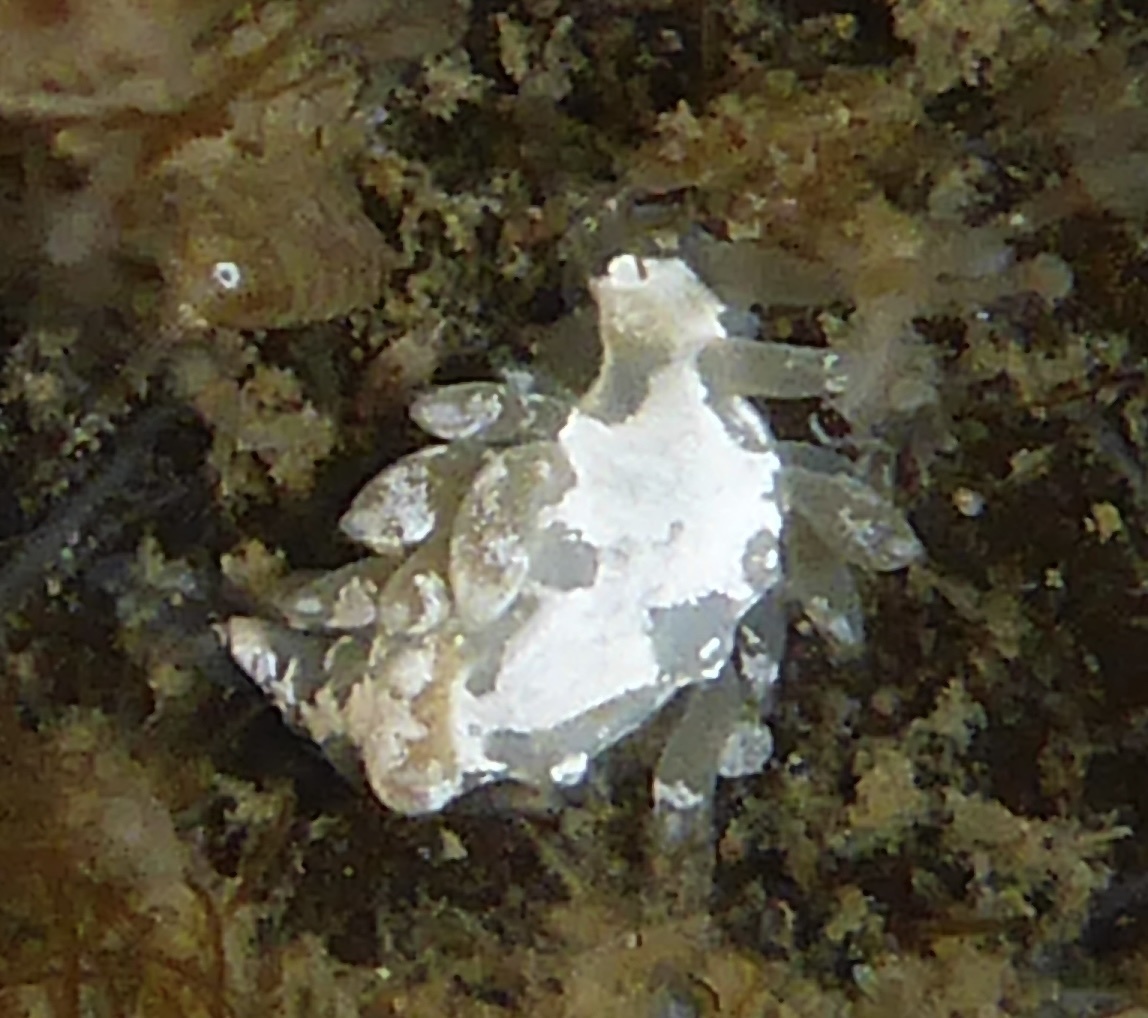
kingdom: Animalia
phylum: Mollusca
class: Gastropoda
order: Nudibranchia
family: Trinchesiidae
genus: Trinchesia
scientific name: Trinchesia albocrusta
